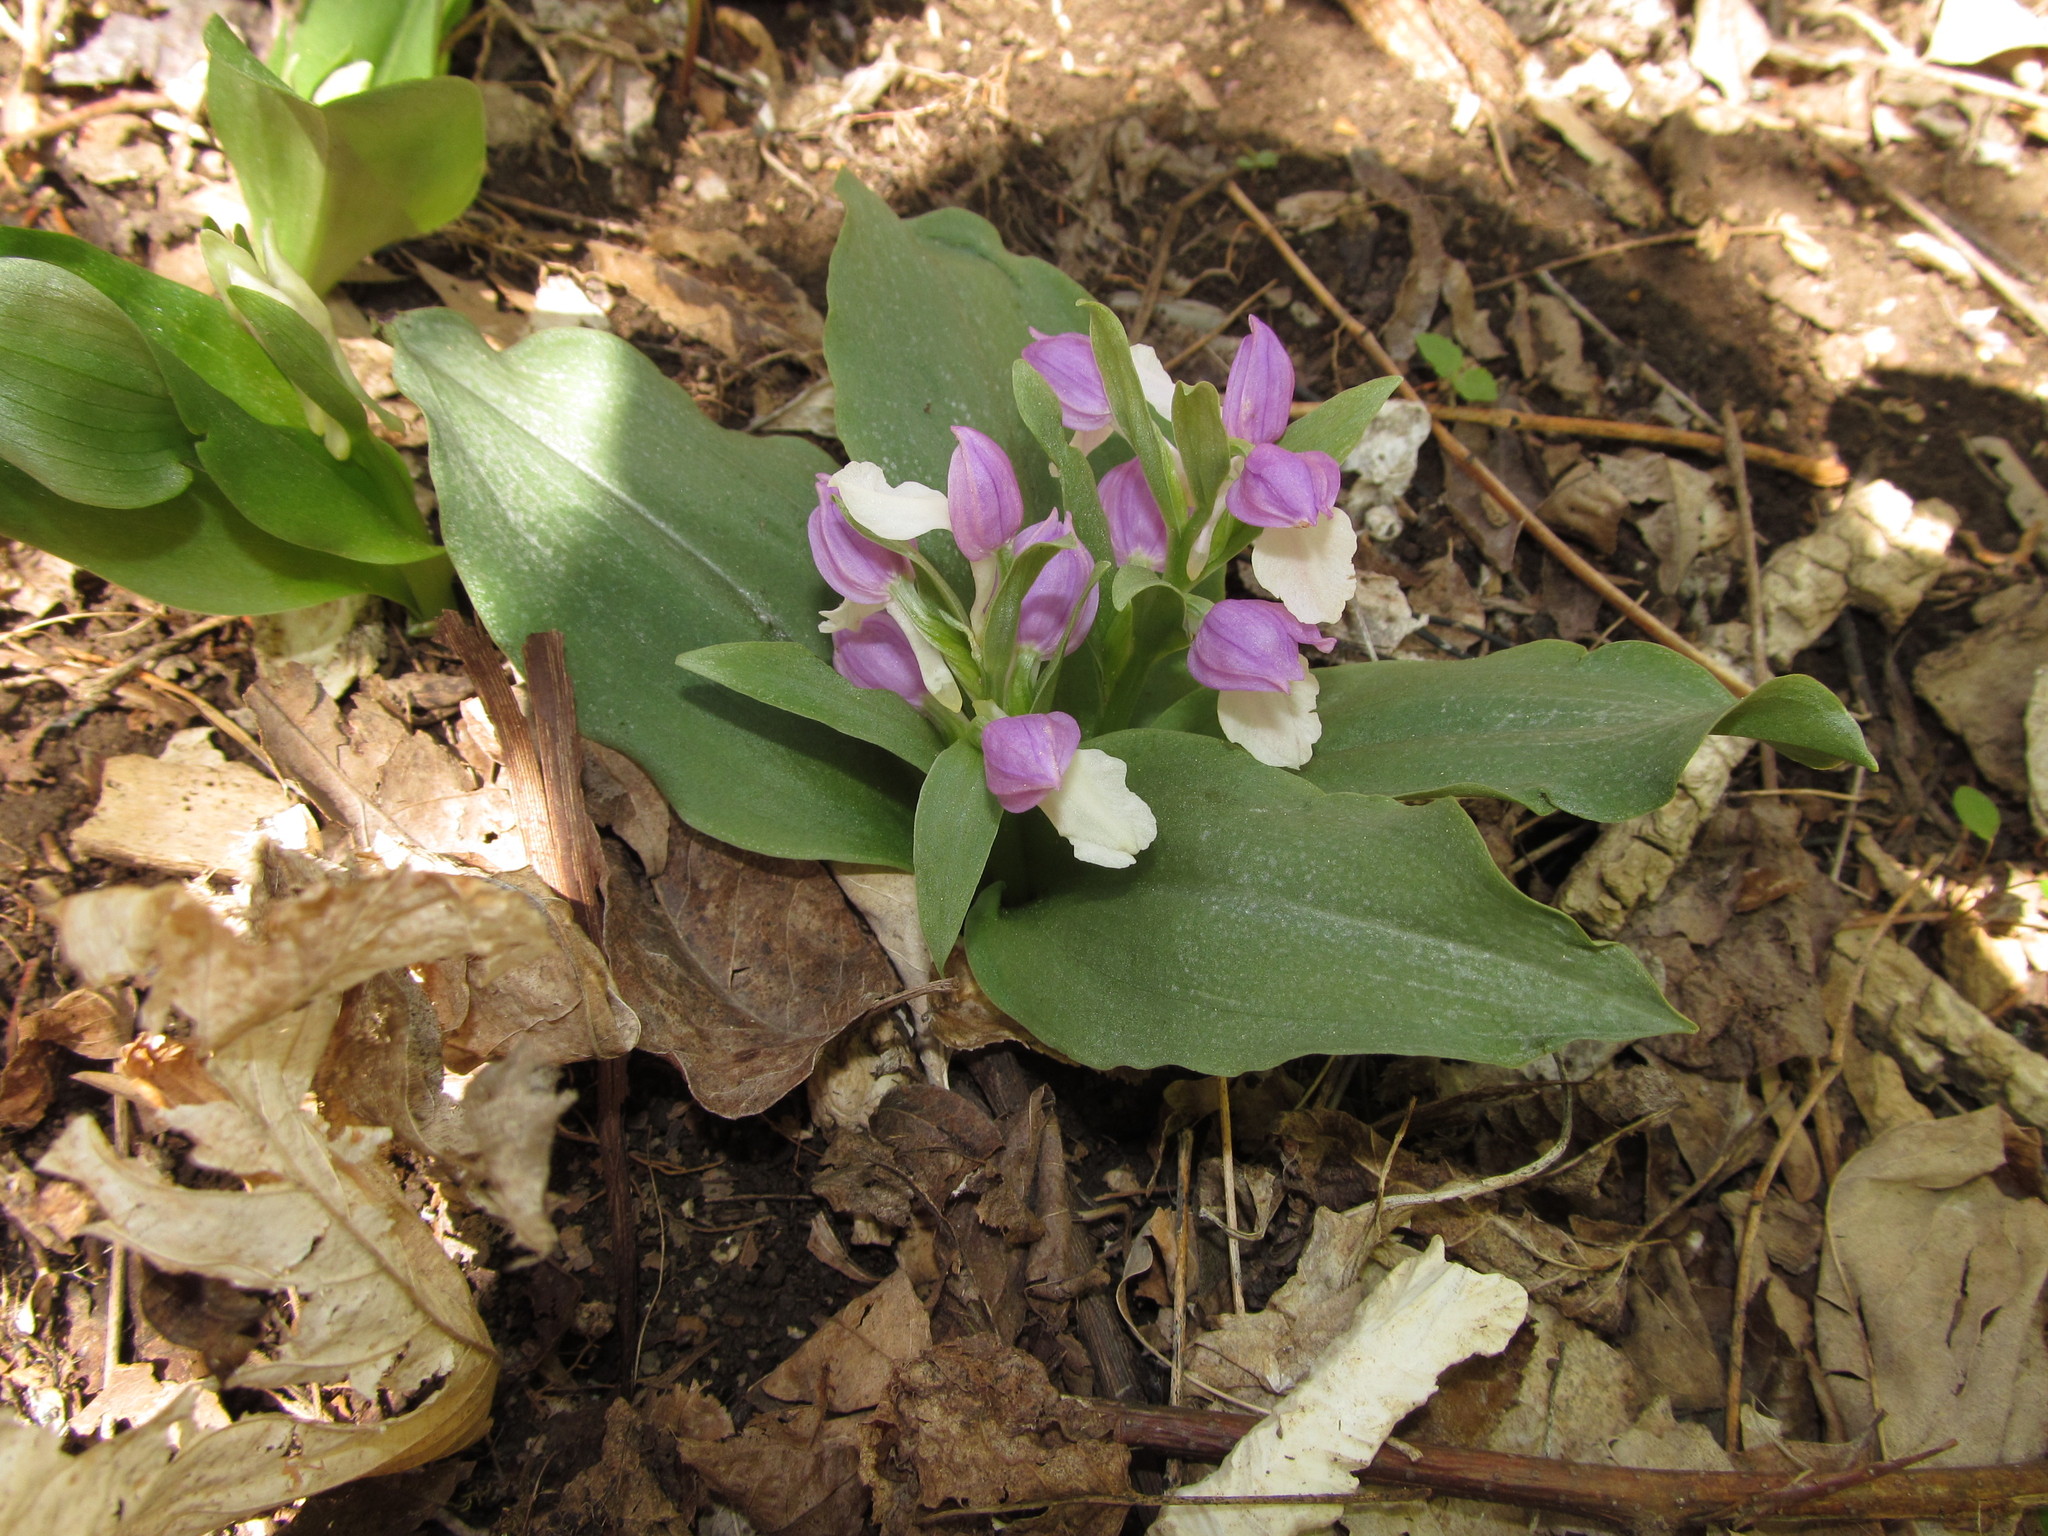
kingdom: Plantae
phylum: Tracheophyta
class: Liliopsida
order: Asparagales
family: Orchidaceae
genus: Galearis
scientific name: Galearis spectabilis
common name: Purple-hooded orchis
